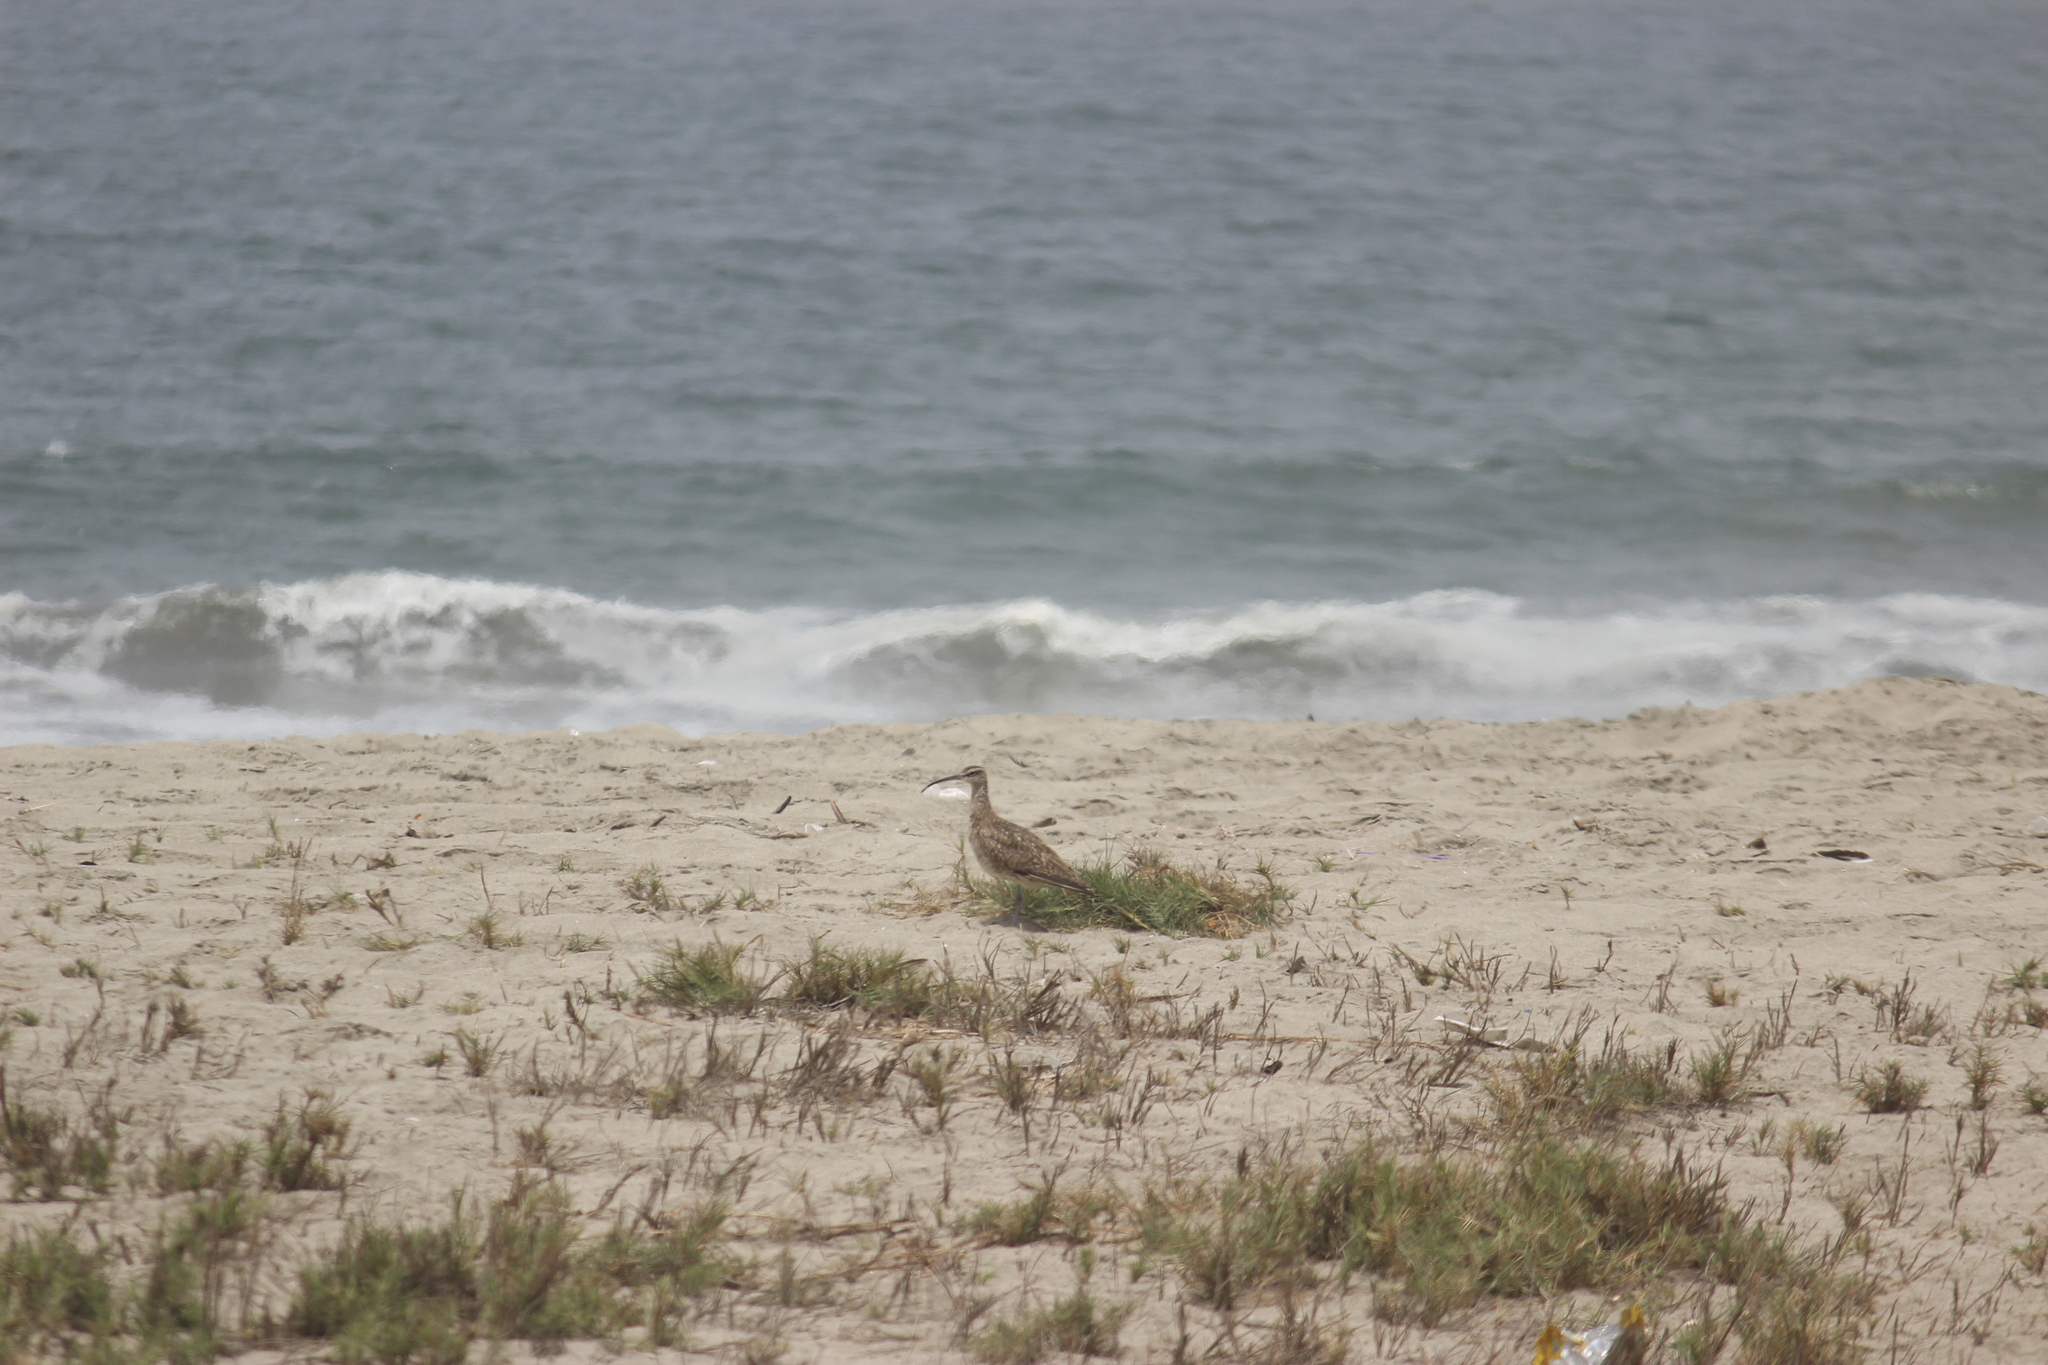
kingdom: Animalia
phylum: Chordata
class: Aves
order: Charadriiformes
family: Scolopacidae
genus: Numenius
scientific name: Numenius phaeopus
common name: Whimbrel
